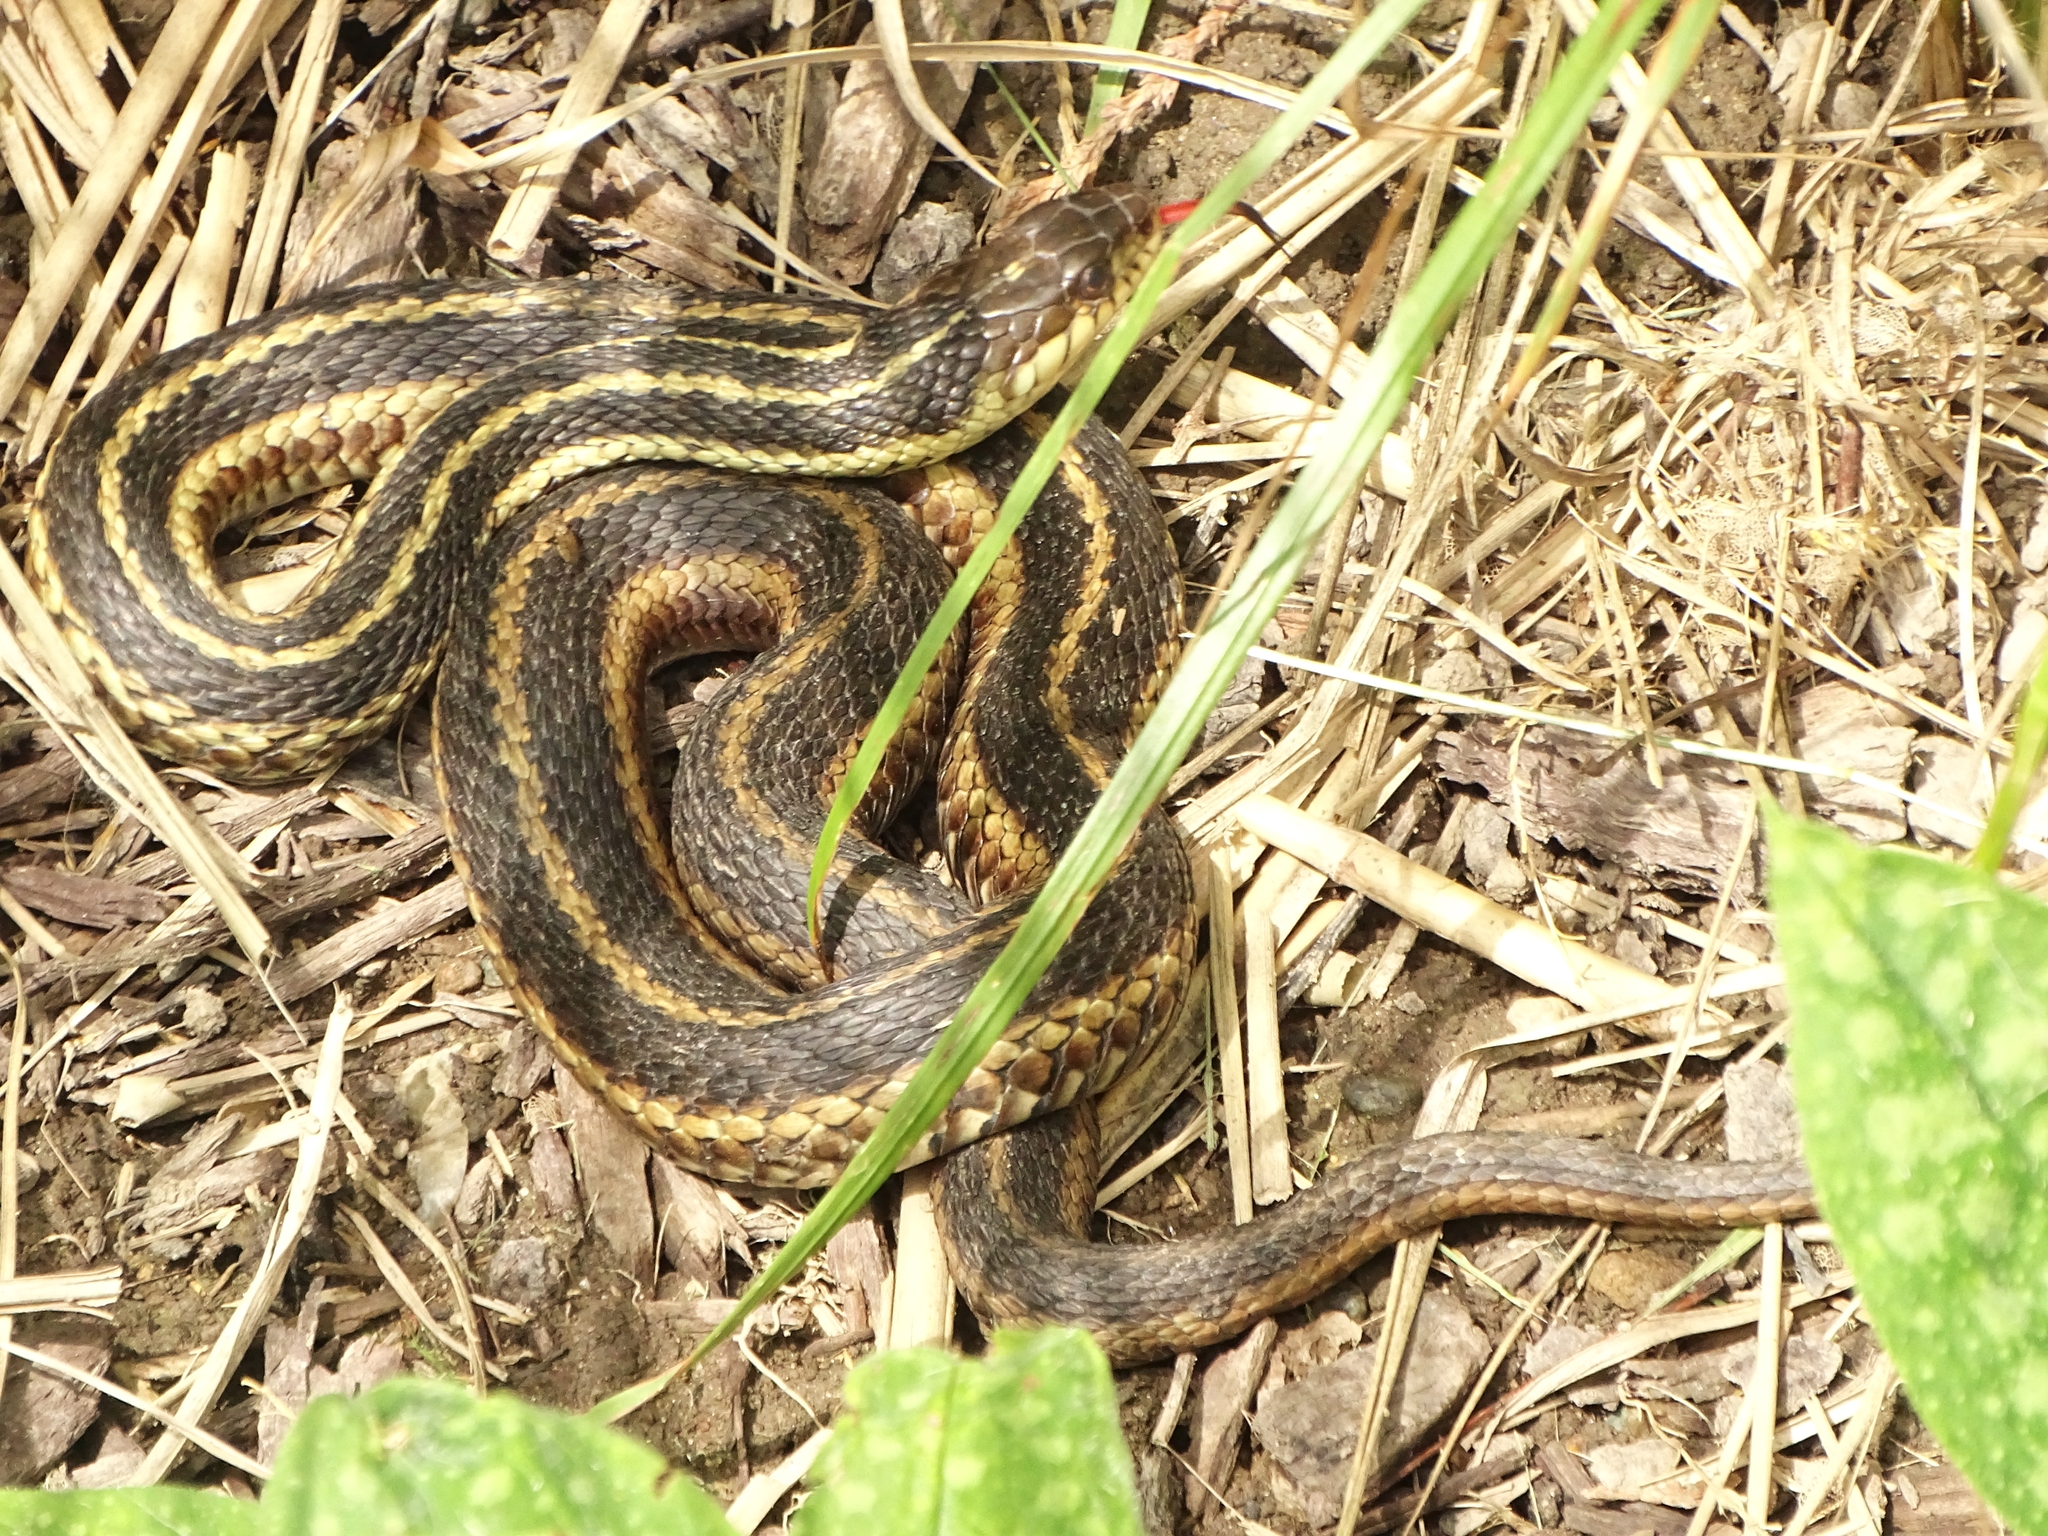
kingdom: Animalia
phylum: Chordata
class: Squamata
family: Colubridae
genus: Thamnophis
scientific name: Thamnophis sirtalis
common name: Common garter snake
